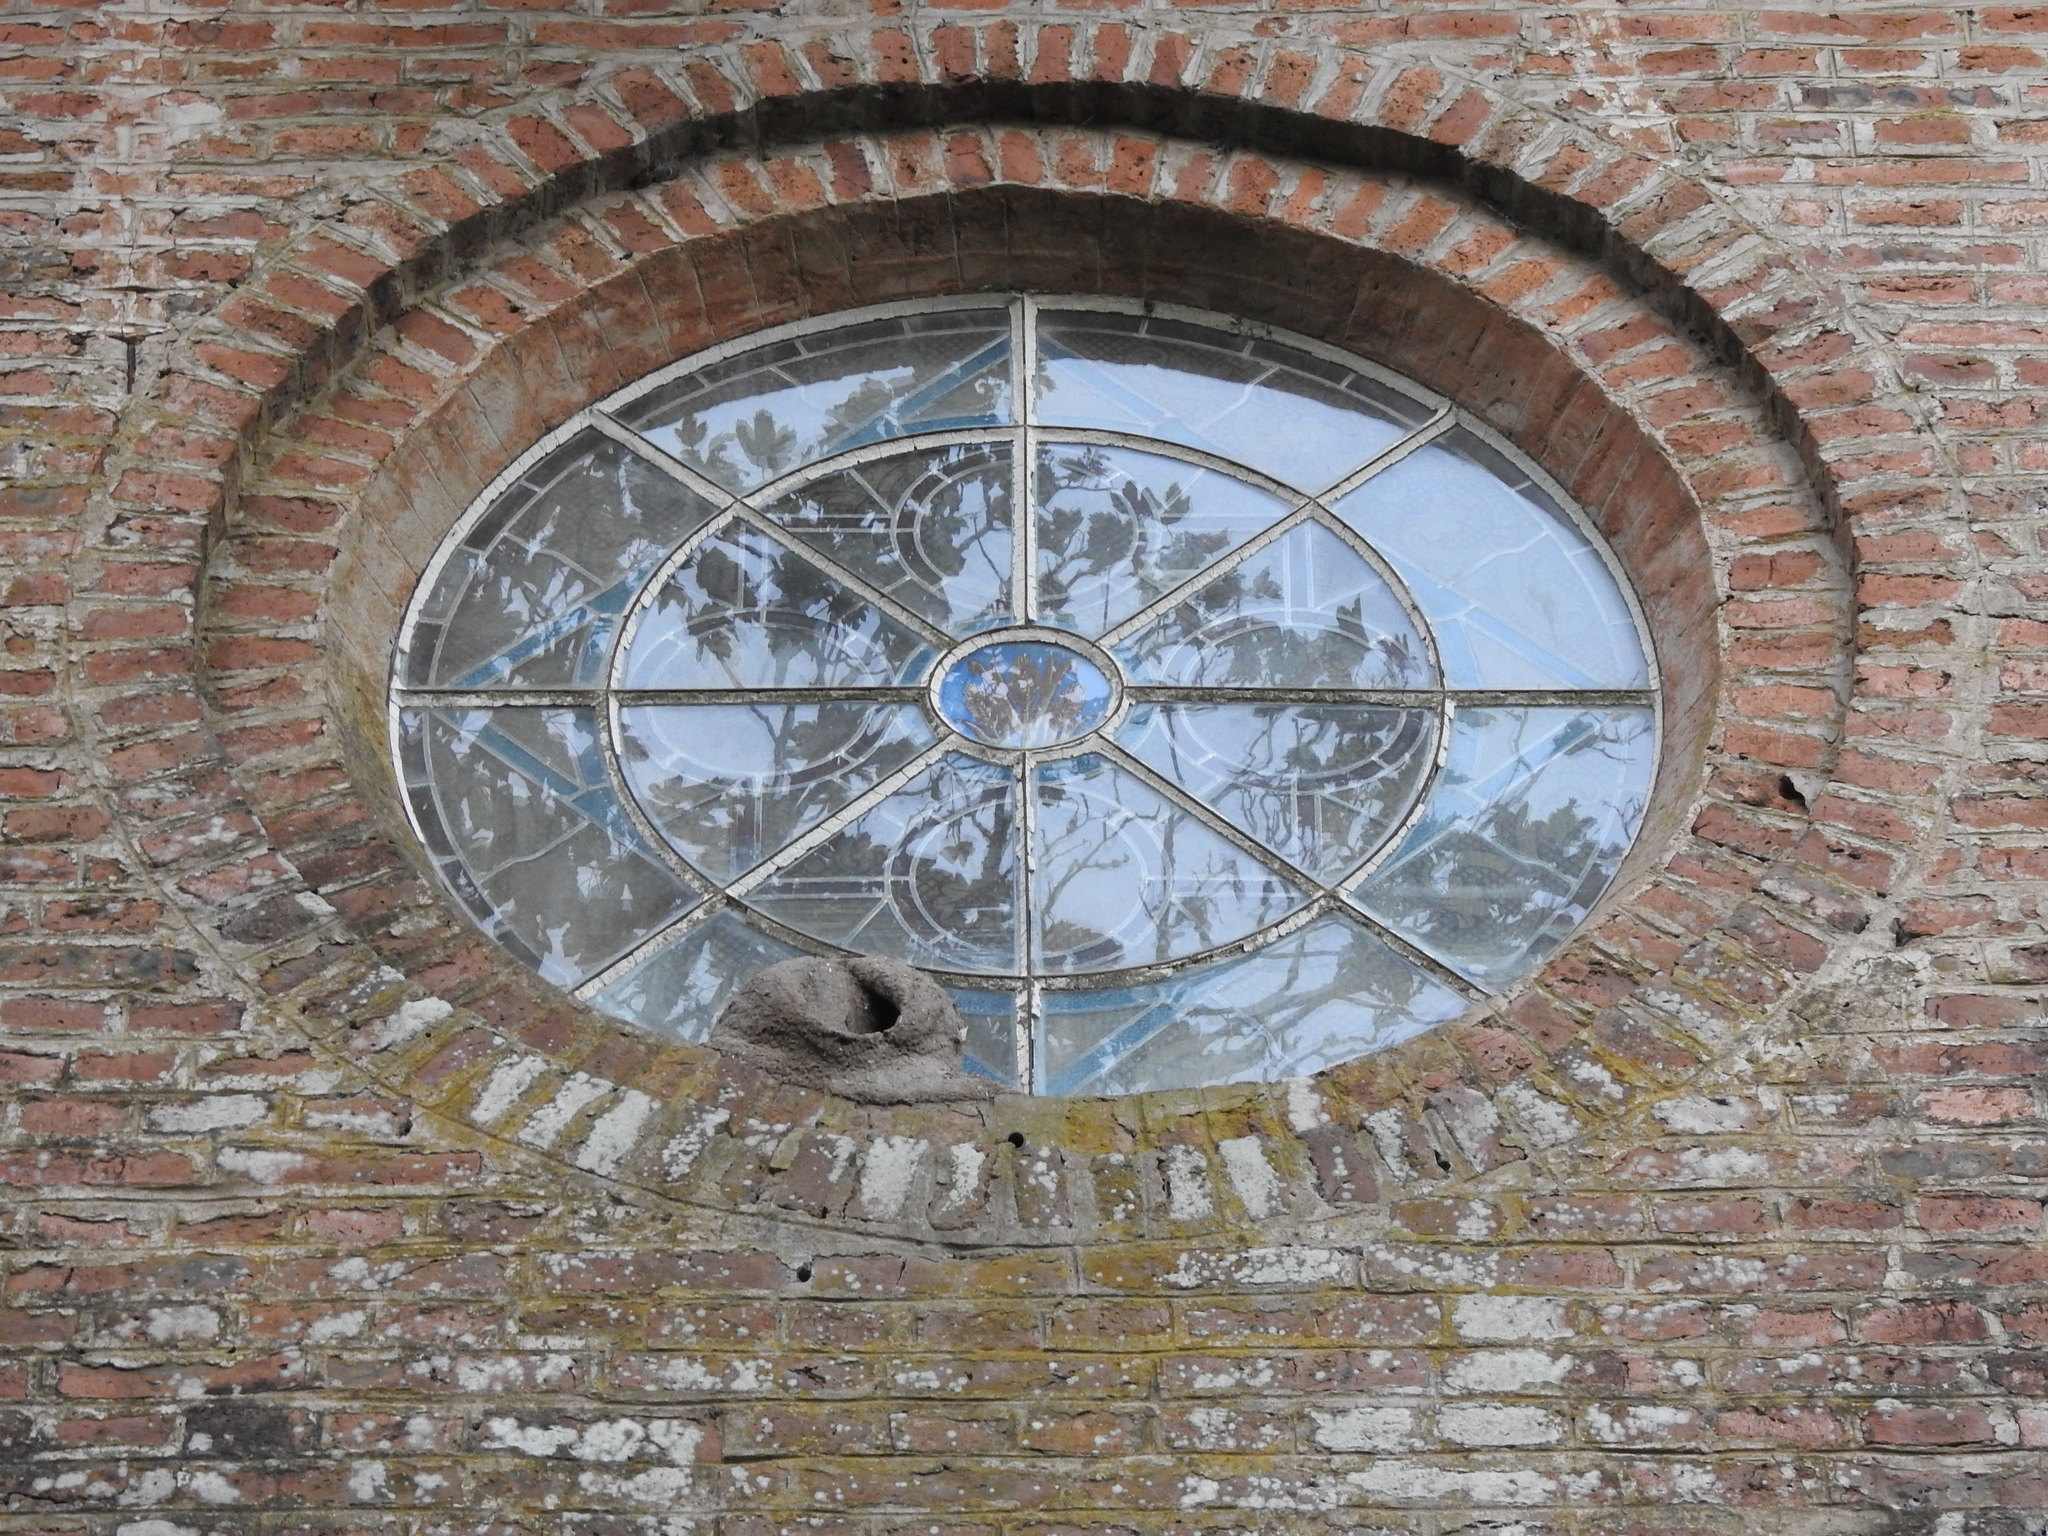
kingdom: Animalia
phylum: Chordata
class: Aves
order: Passeriformes
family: Furnariidae
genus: Furnarius
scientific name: Furnarius rufus
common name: Rufous hornero
